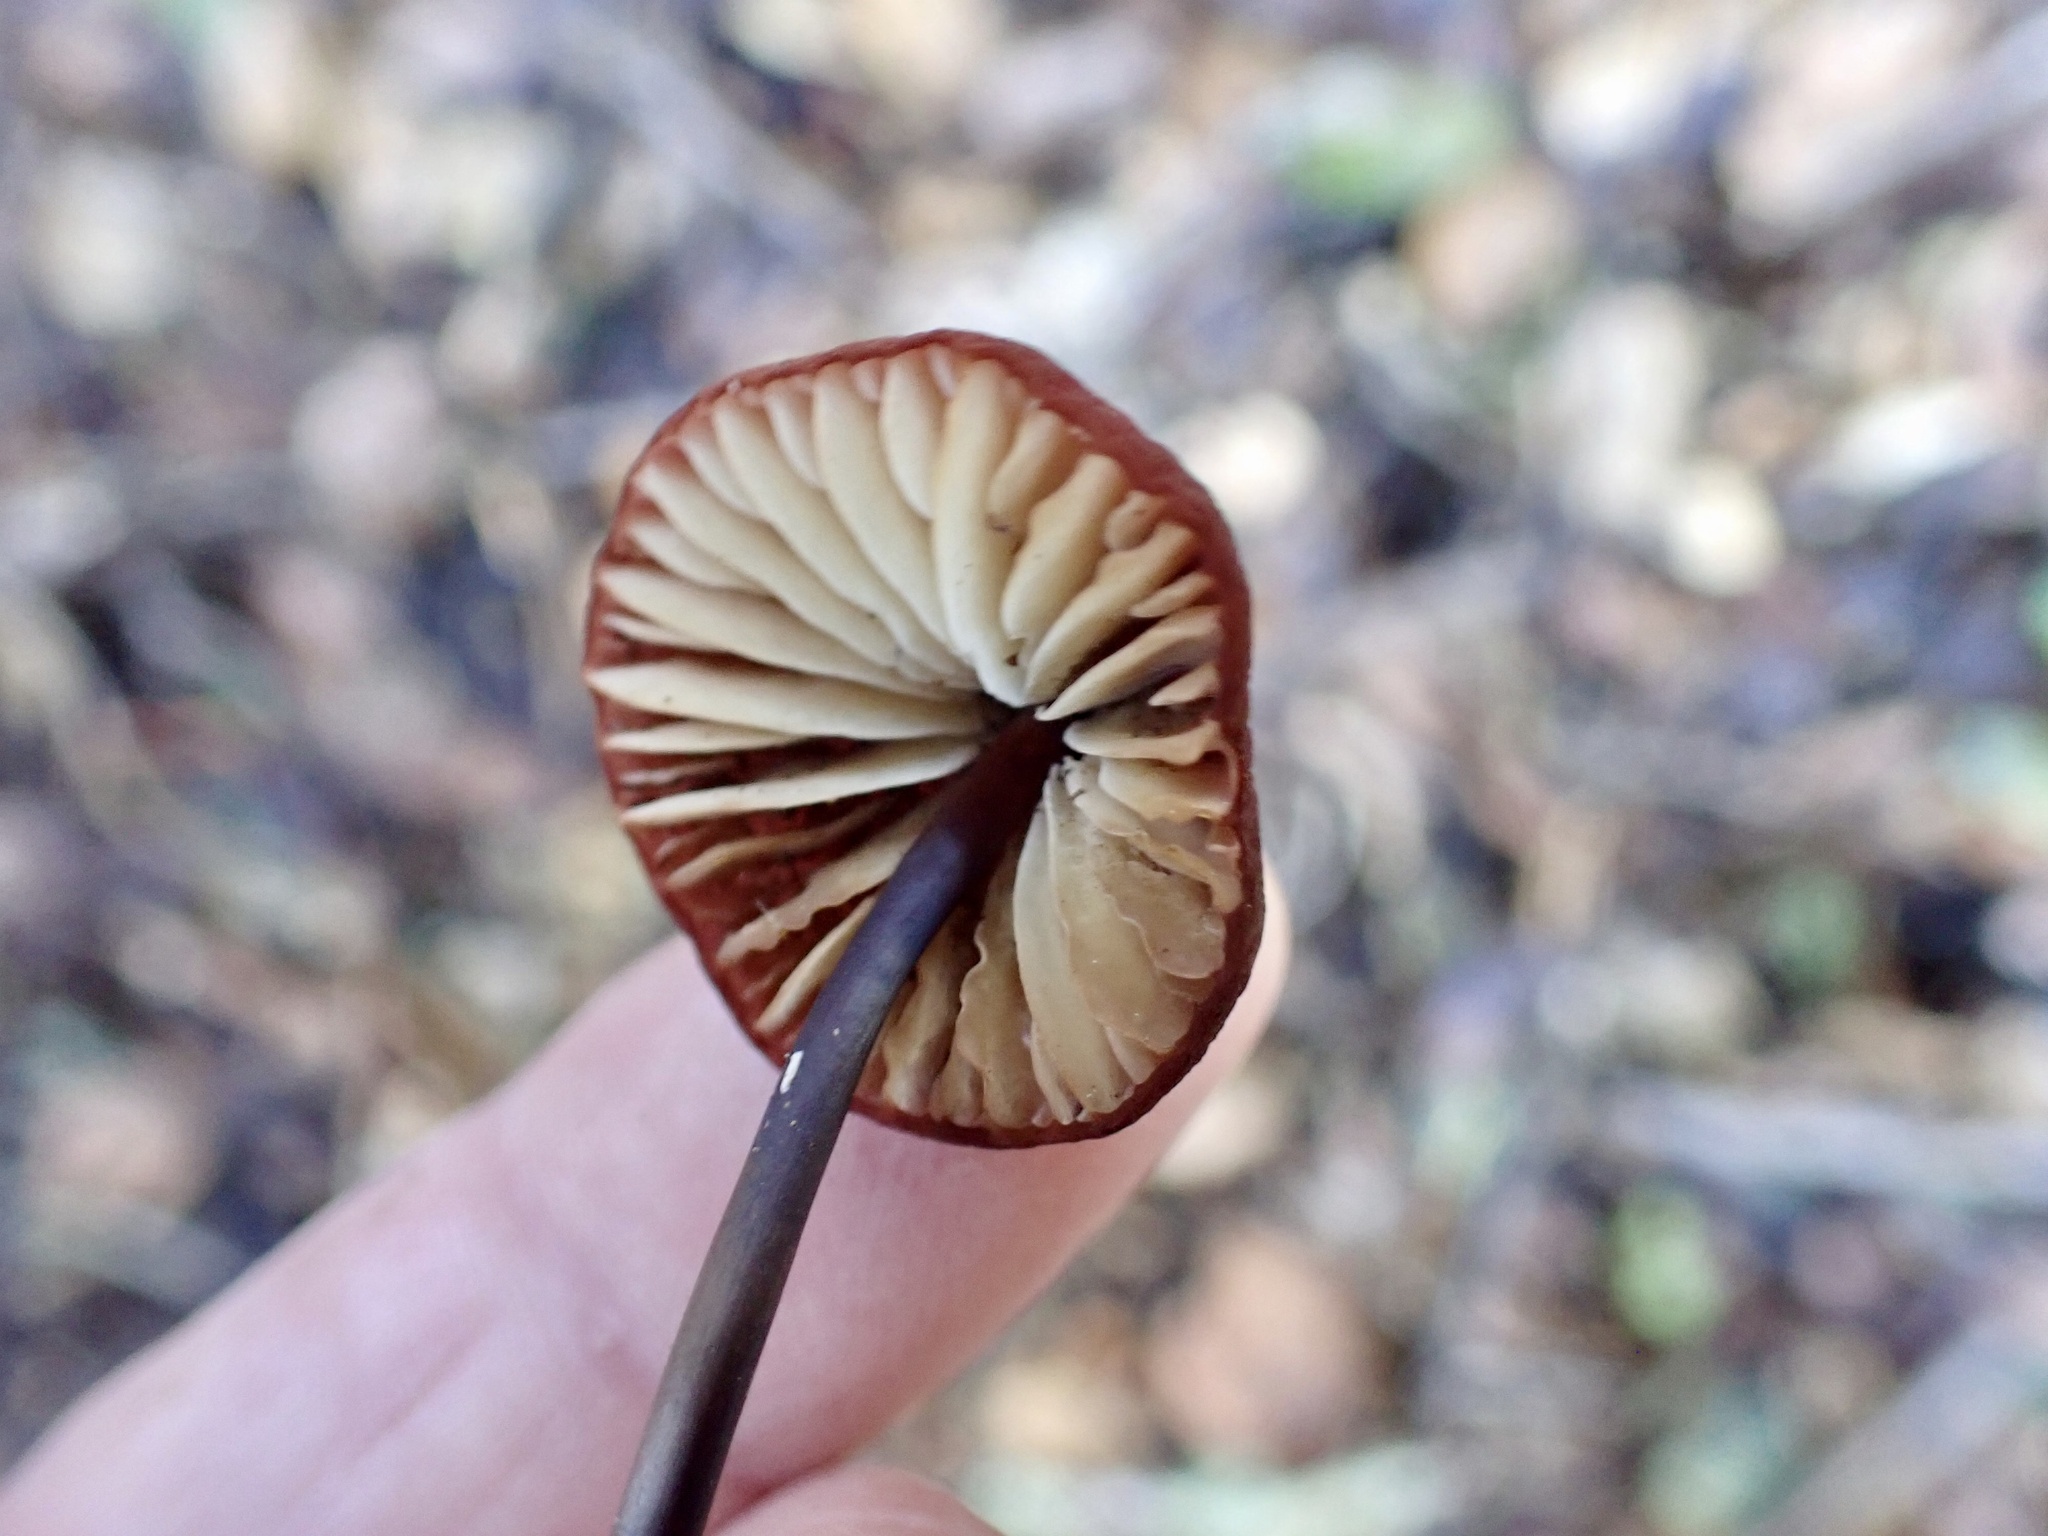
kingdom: Fungi
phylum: Basidiomycota
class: Agaricomycetes
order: Agaricales
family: Marasmiaceae
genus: Marasmius
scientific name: Marasmius plicatulus
